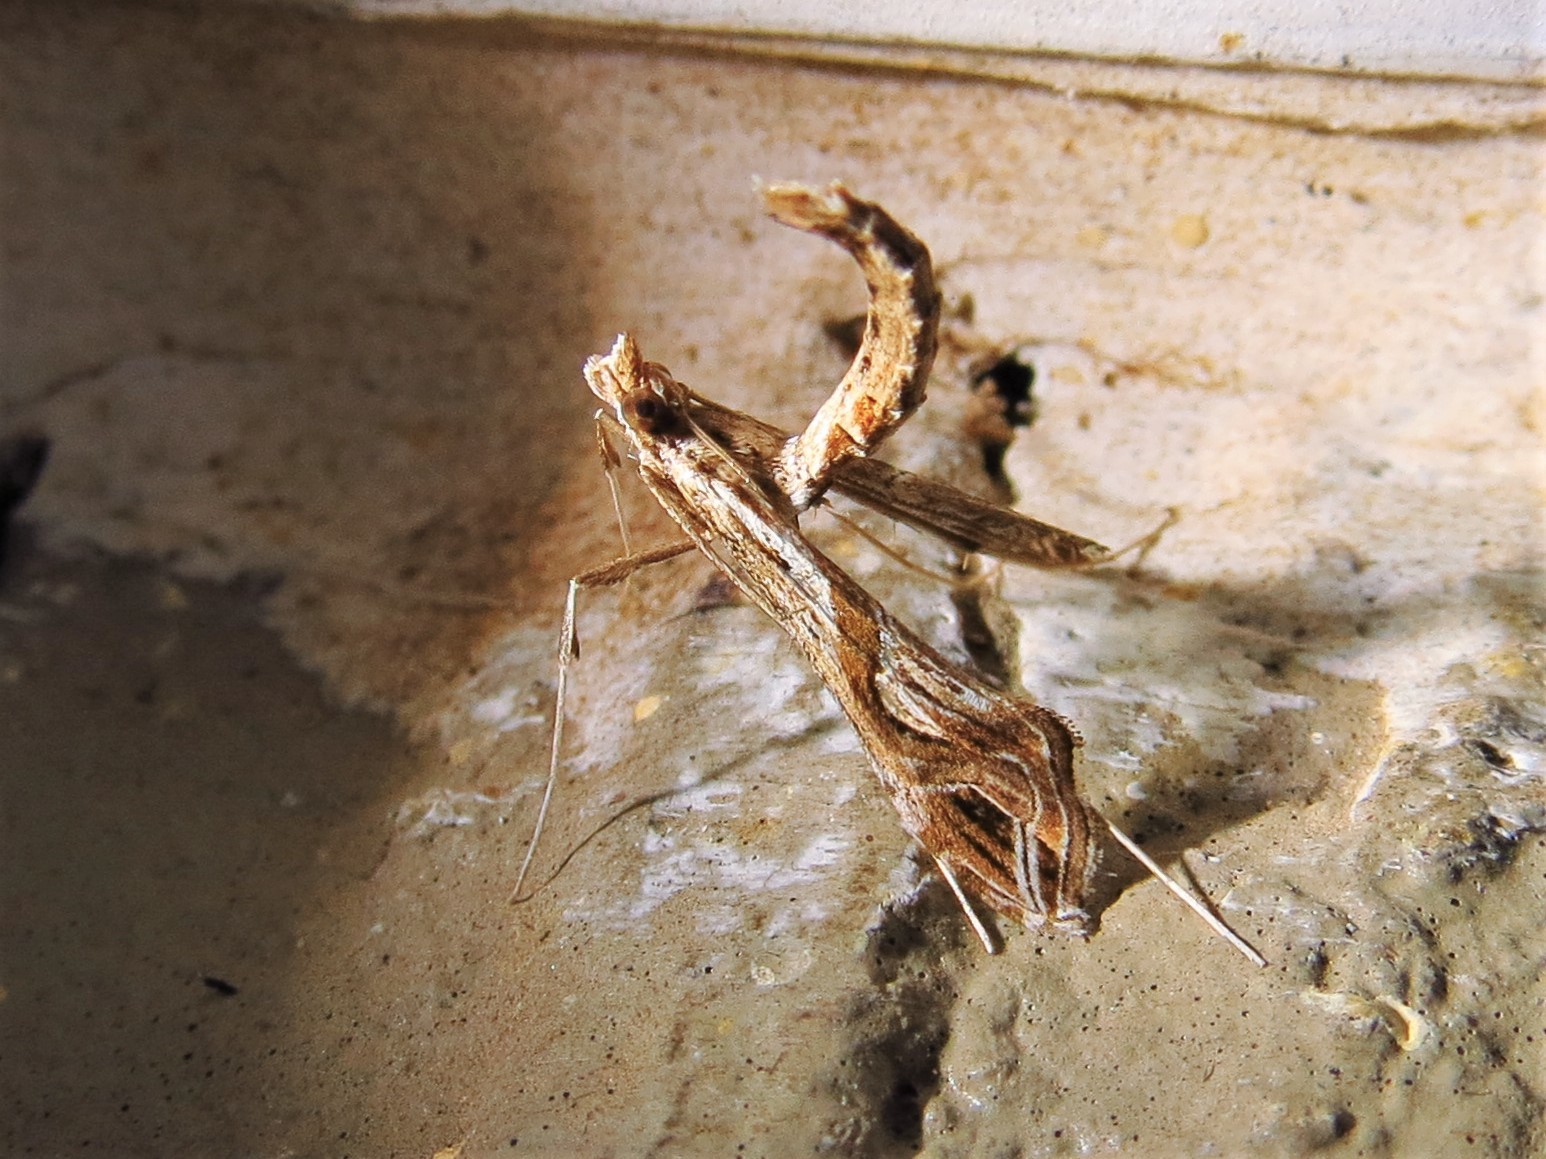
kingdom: Animalia
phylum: Arthropoda
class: Insecta
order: Lepidoptera
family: Crambidae
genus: Lineodes
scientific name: Lineodes integra
